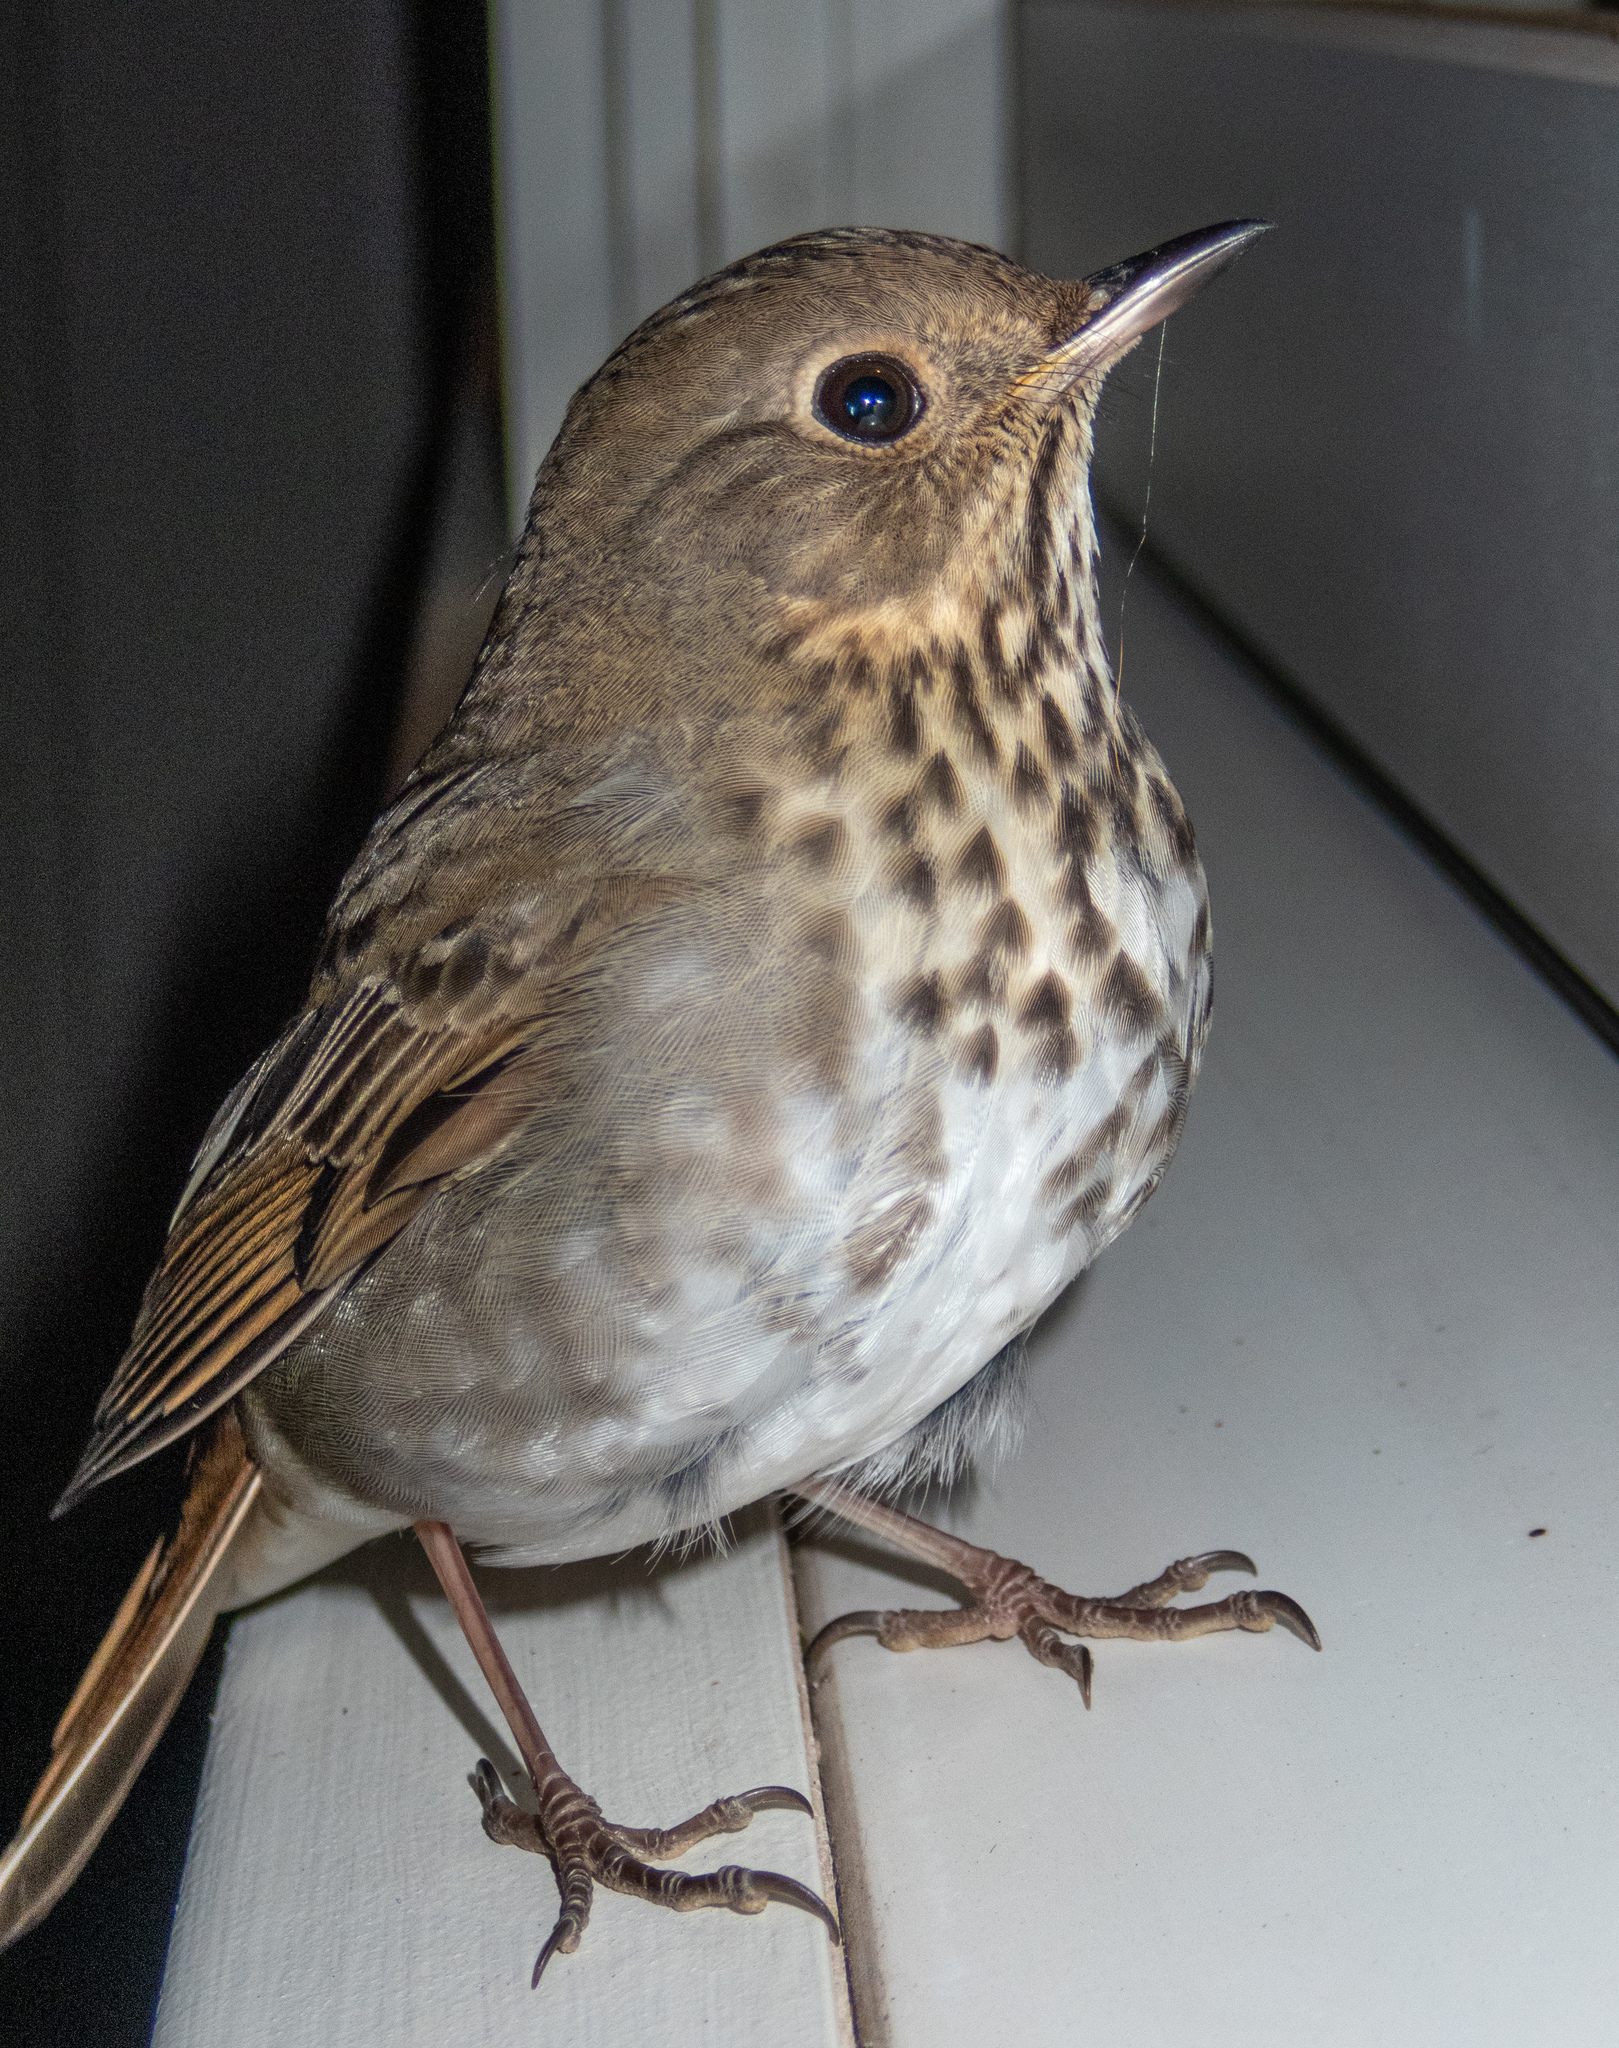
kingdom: Animalia
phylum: Chordata
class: Aves
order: Passeriformes
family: Turdidae
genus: Catharus
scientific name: Catharus guttatus
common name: Hermit thrush
